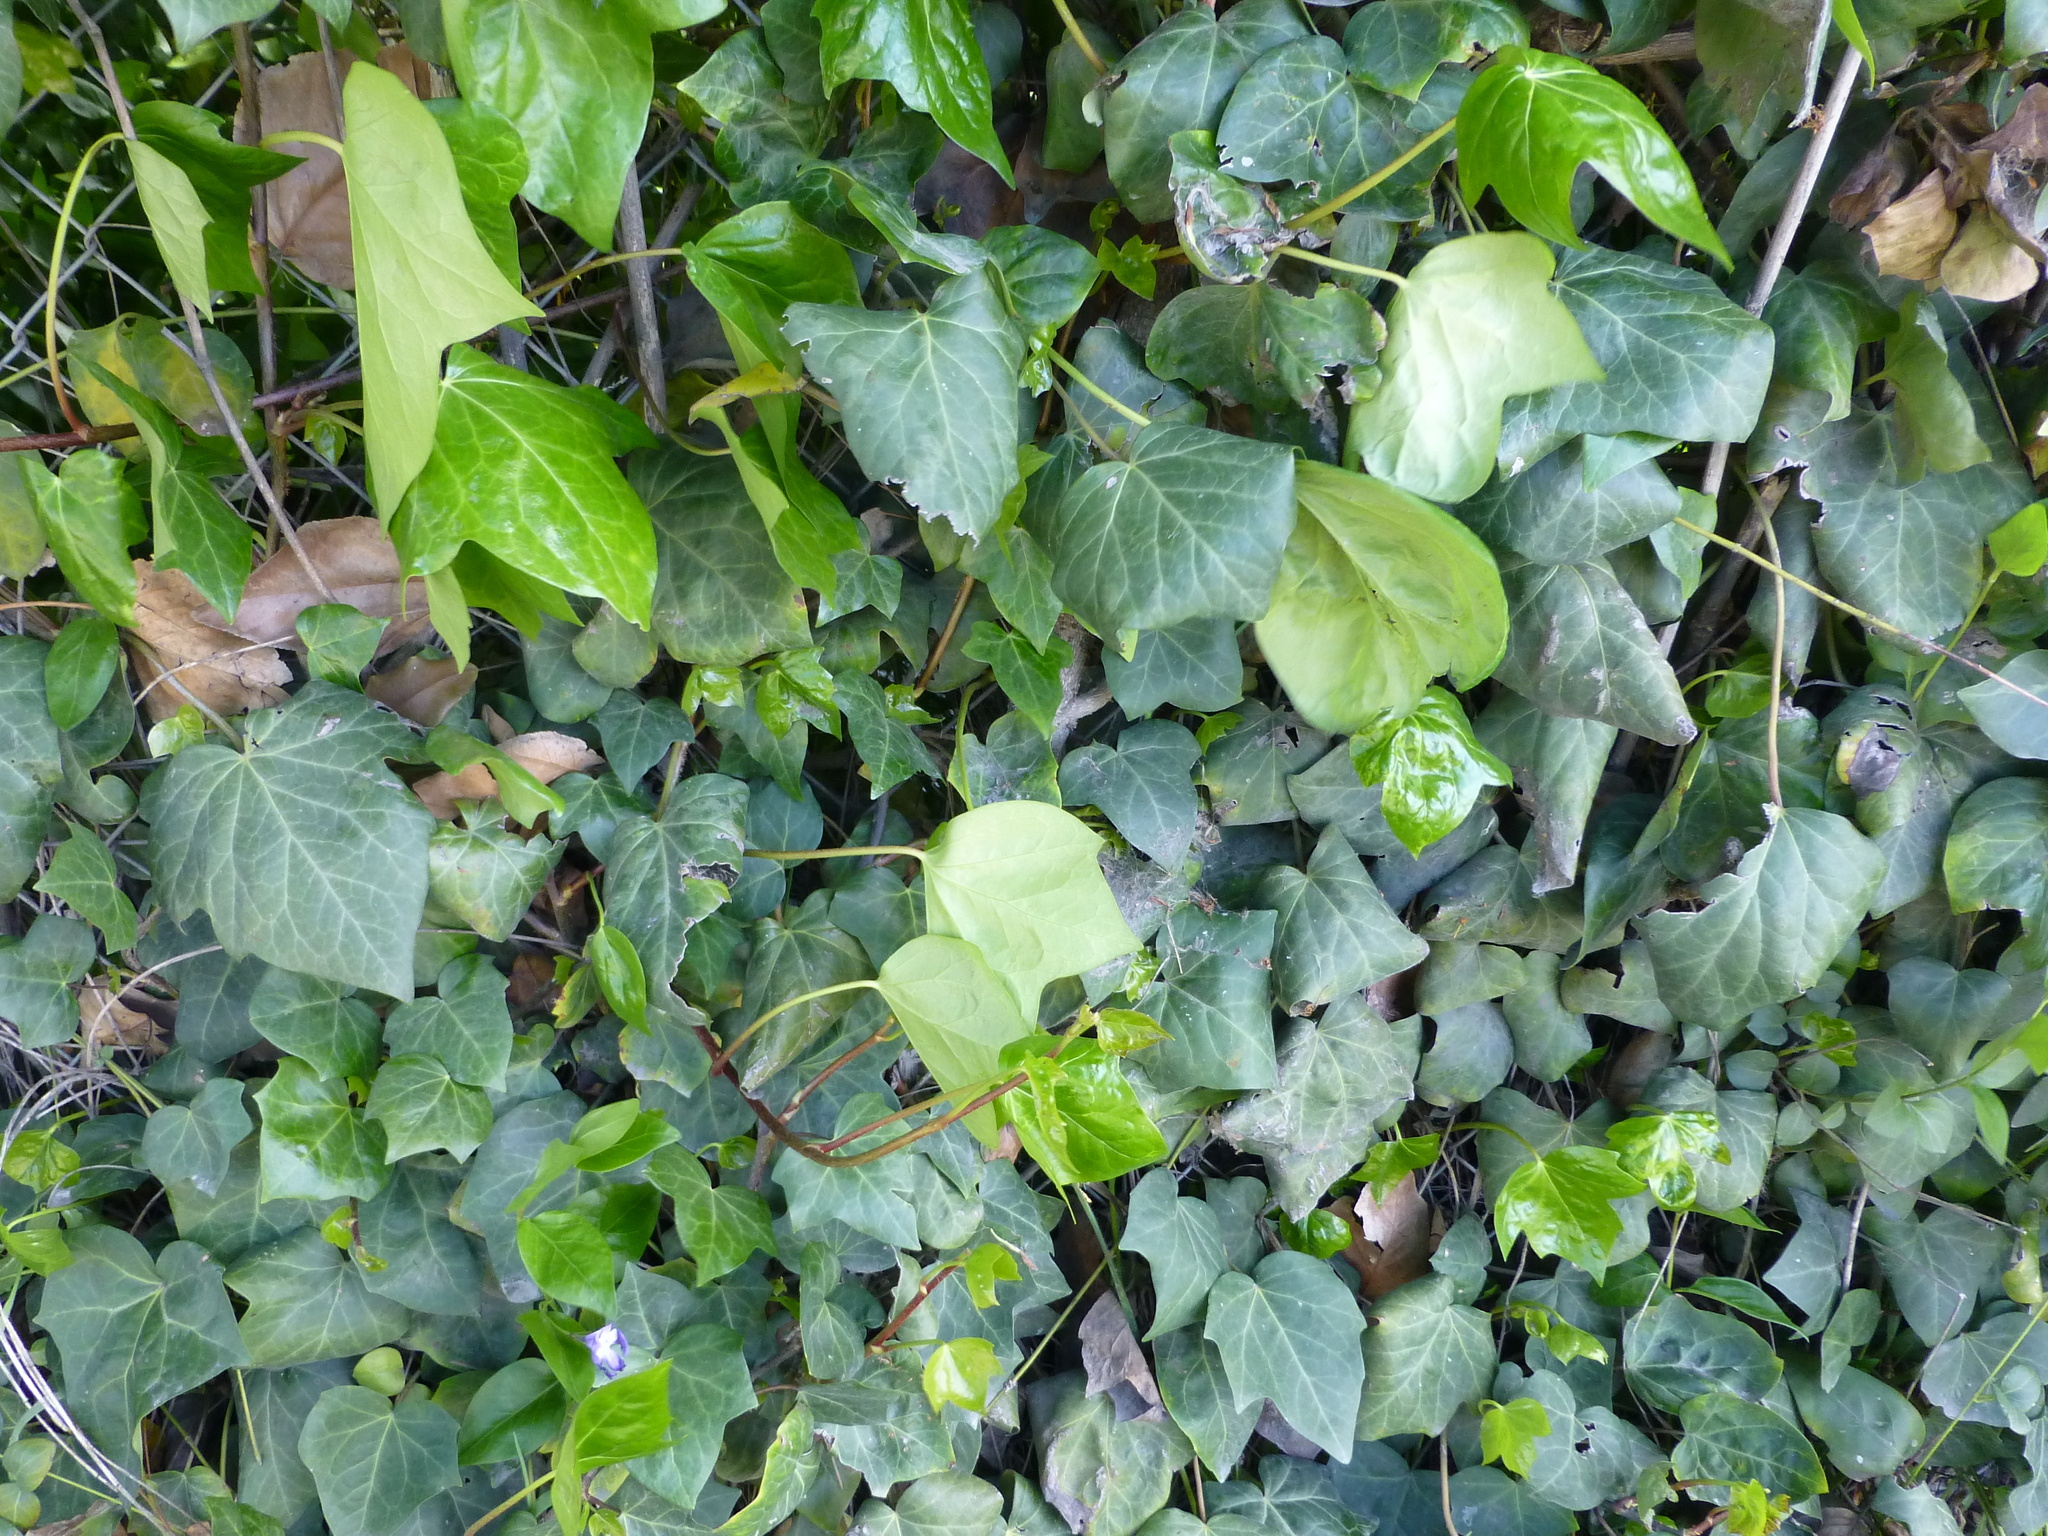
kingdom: Plantae
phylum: Tracheophyta
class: Magnoliopsida
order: Apiales
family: Araliaceae
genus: Hedera
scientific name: Hedera helix
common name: Ivy
